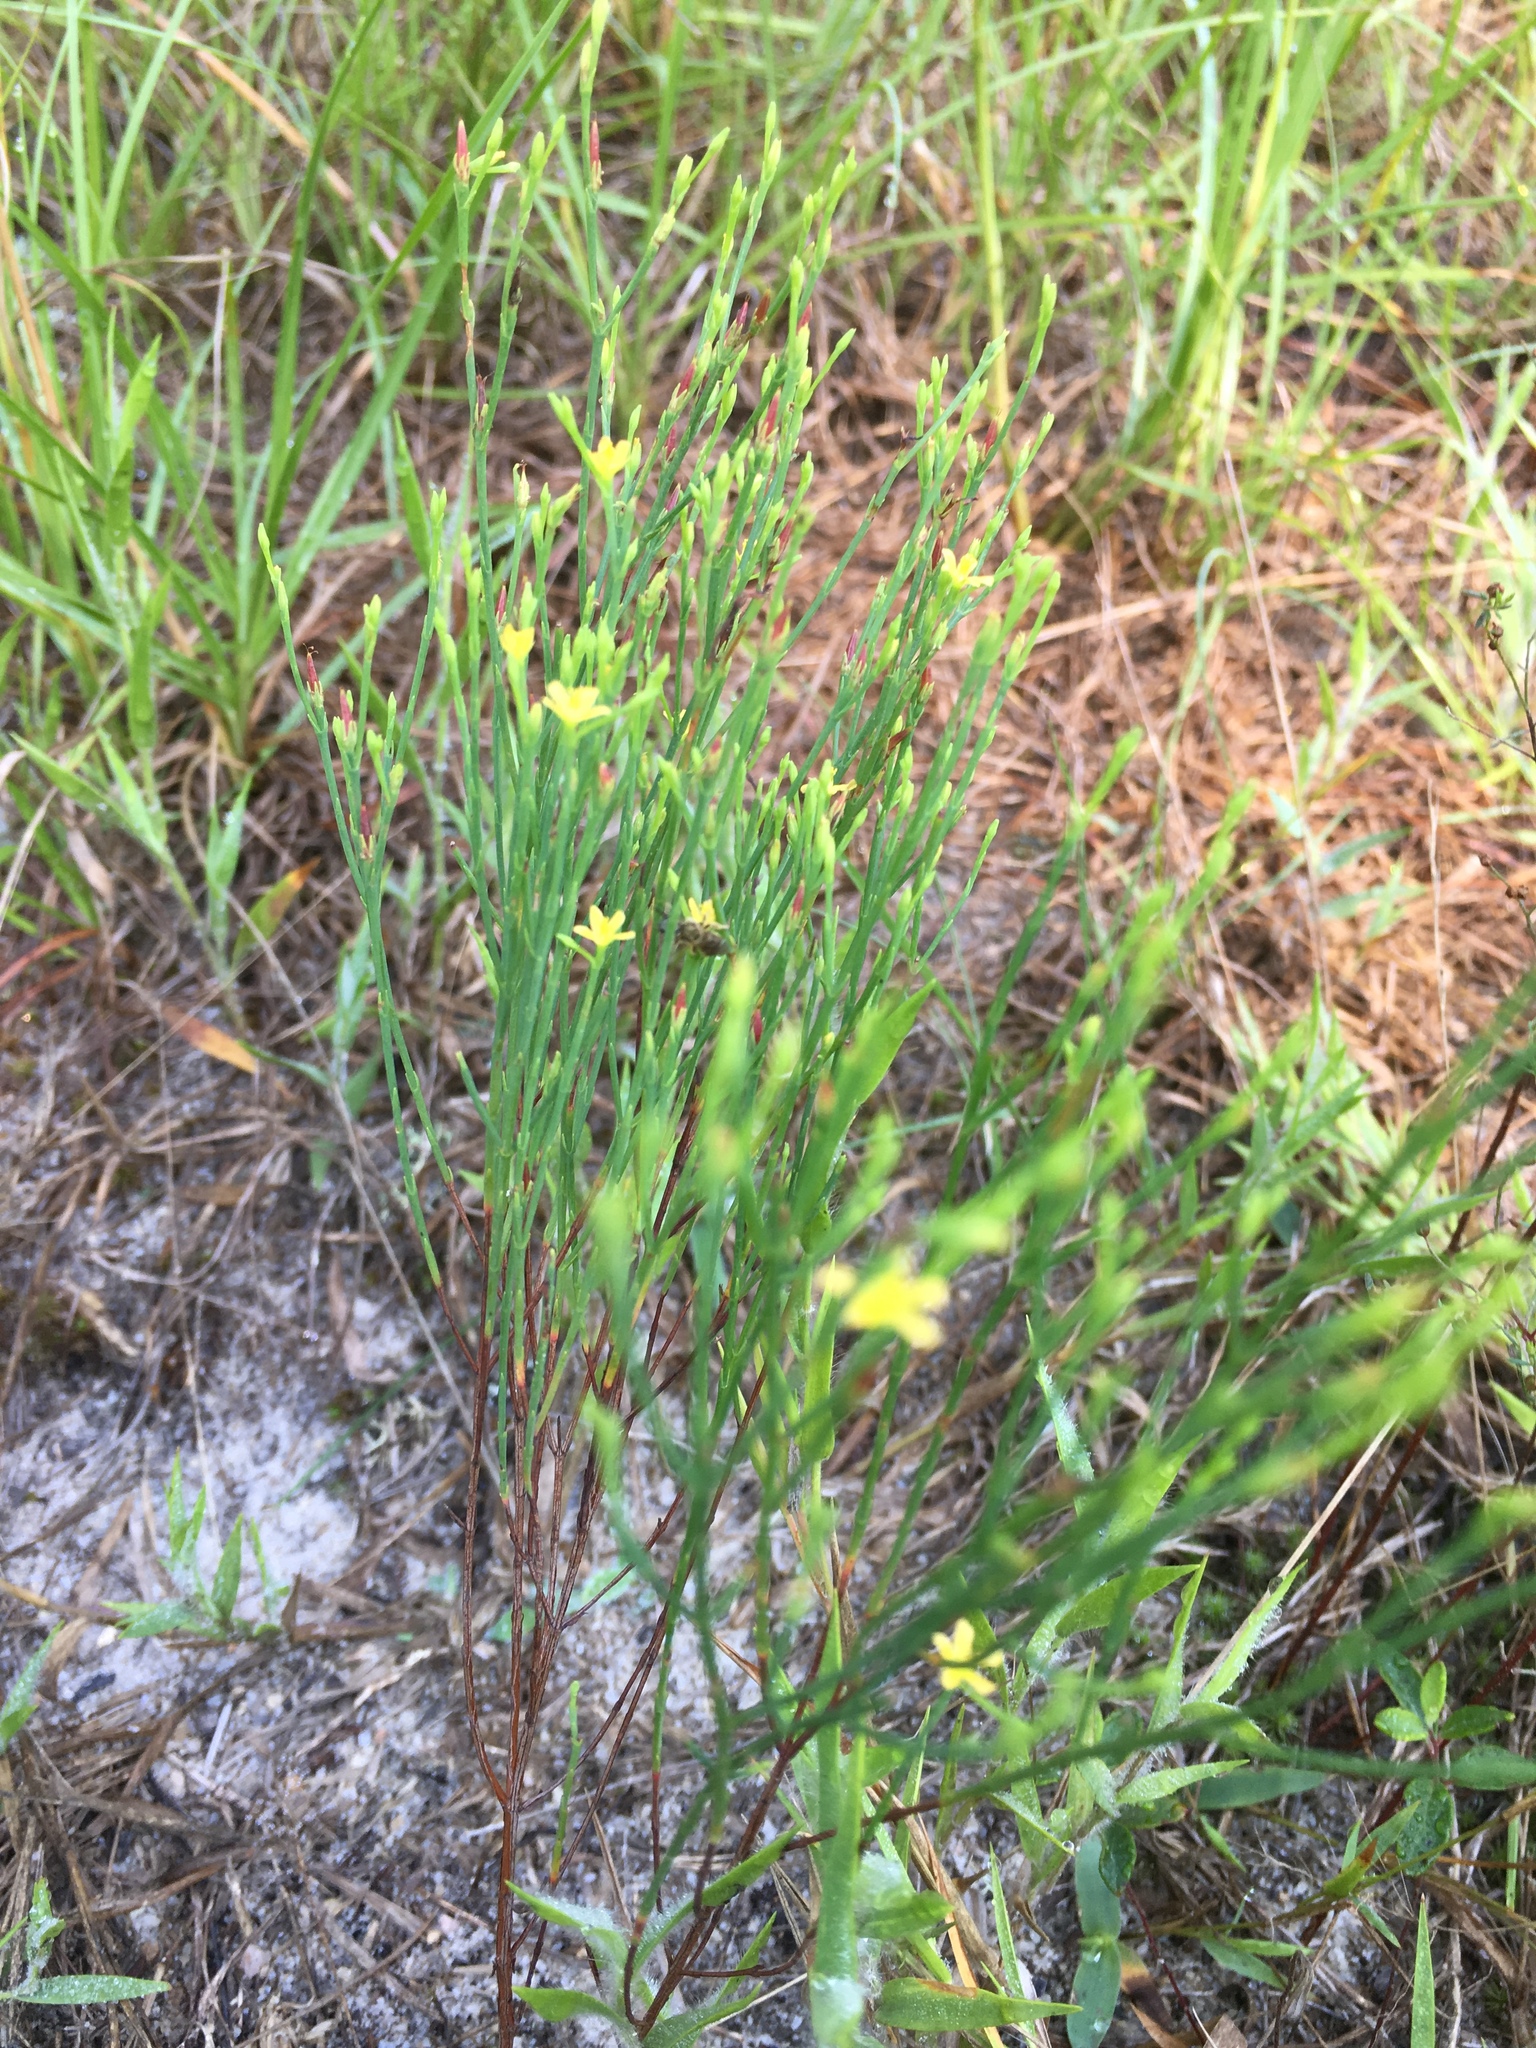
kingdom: Plantae
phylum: Tracheophyta
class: Magnoliopsida
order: Malpighiales
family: Hypericaceae
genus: Hypericum
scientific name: Hypericum gentianoides
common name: Gentian-leaved st. john's-wort
